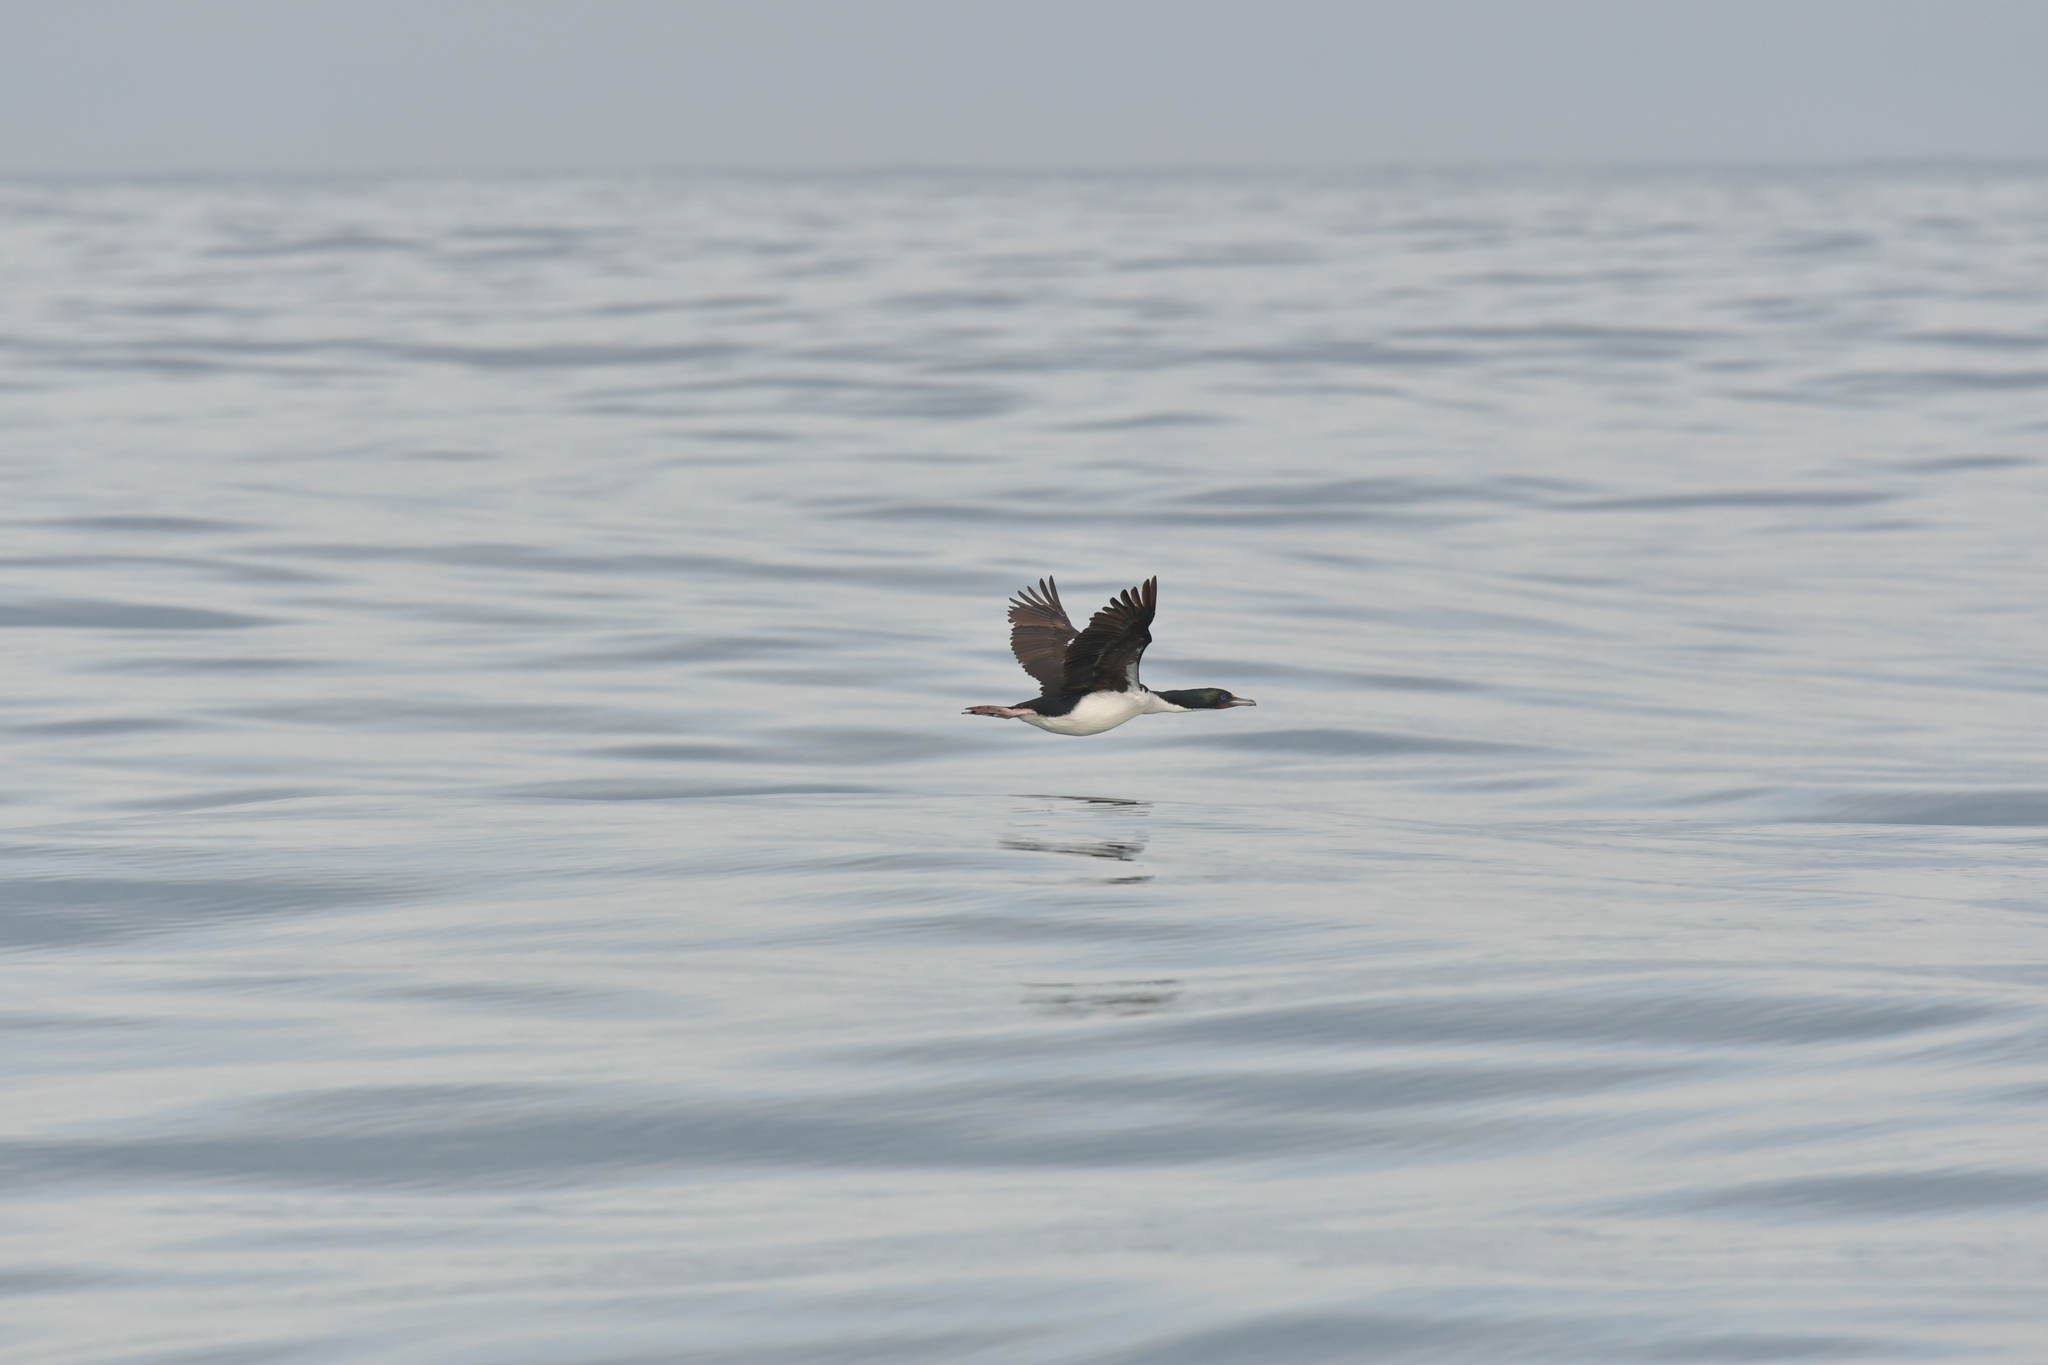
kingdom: Animalia
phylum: Chordata
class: Aves
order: Suliformes
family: Phalacrocoracidae
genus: Leucocarbo
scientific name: Leucocarbo chalconotus
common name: Stewart shag
